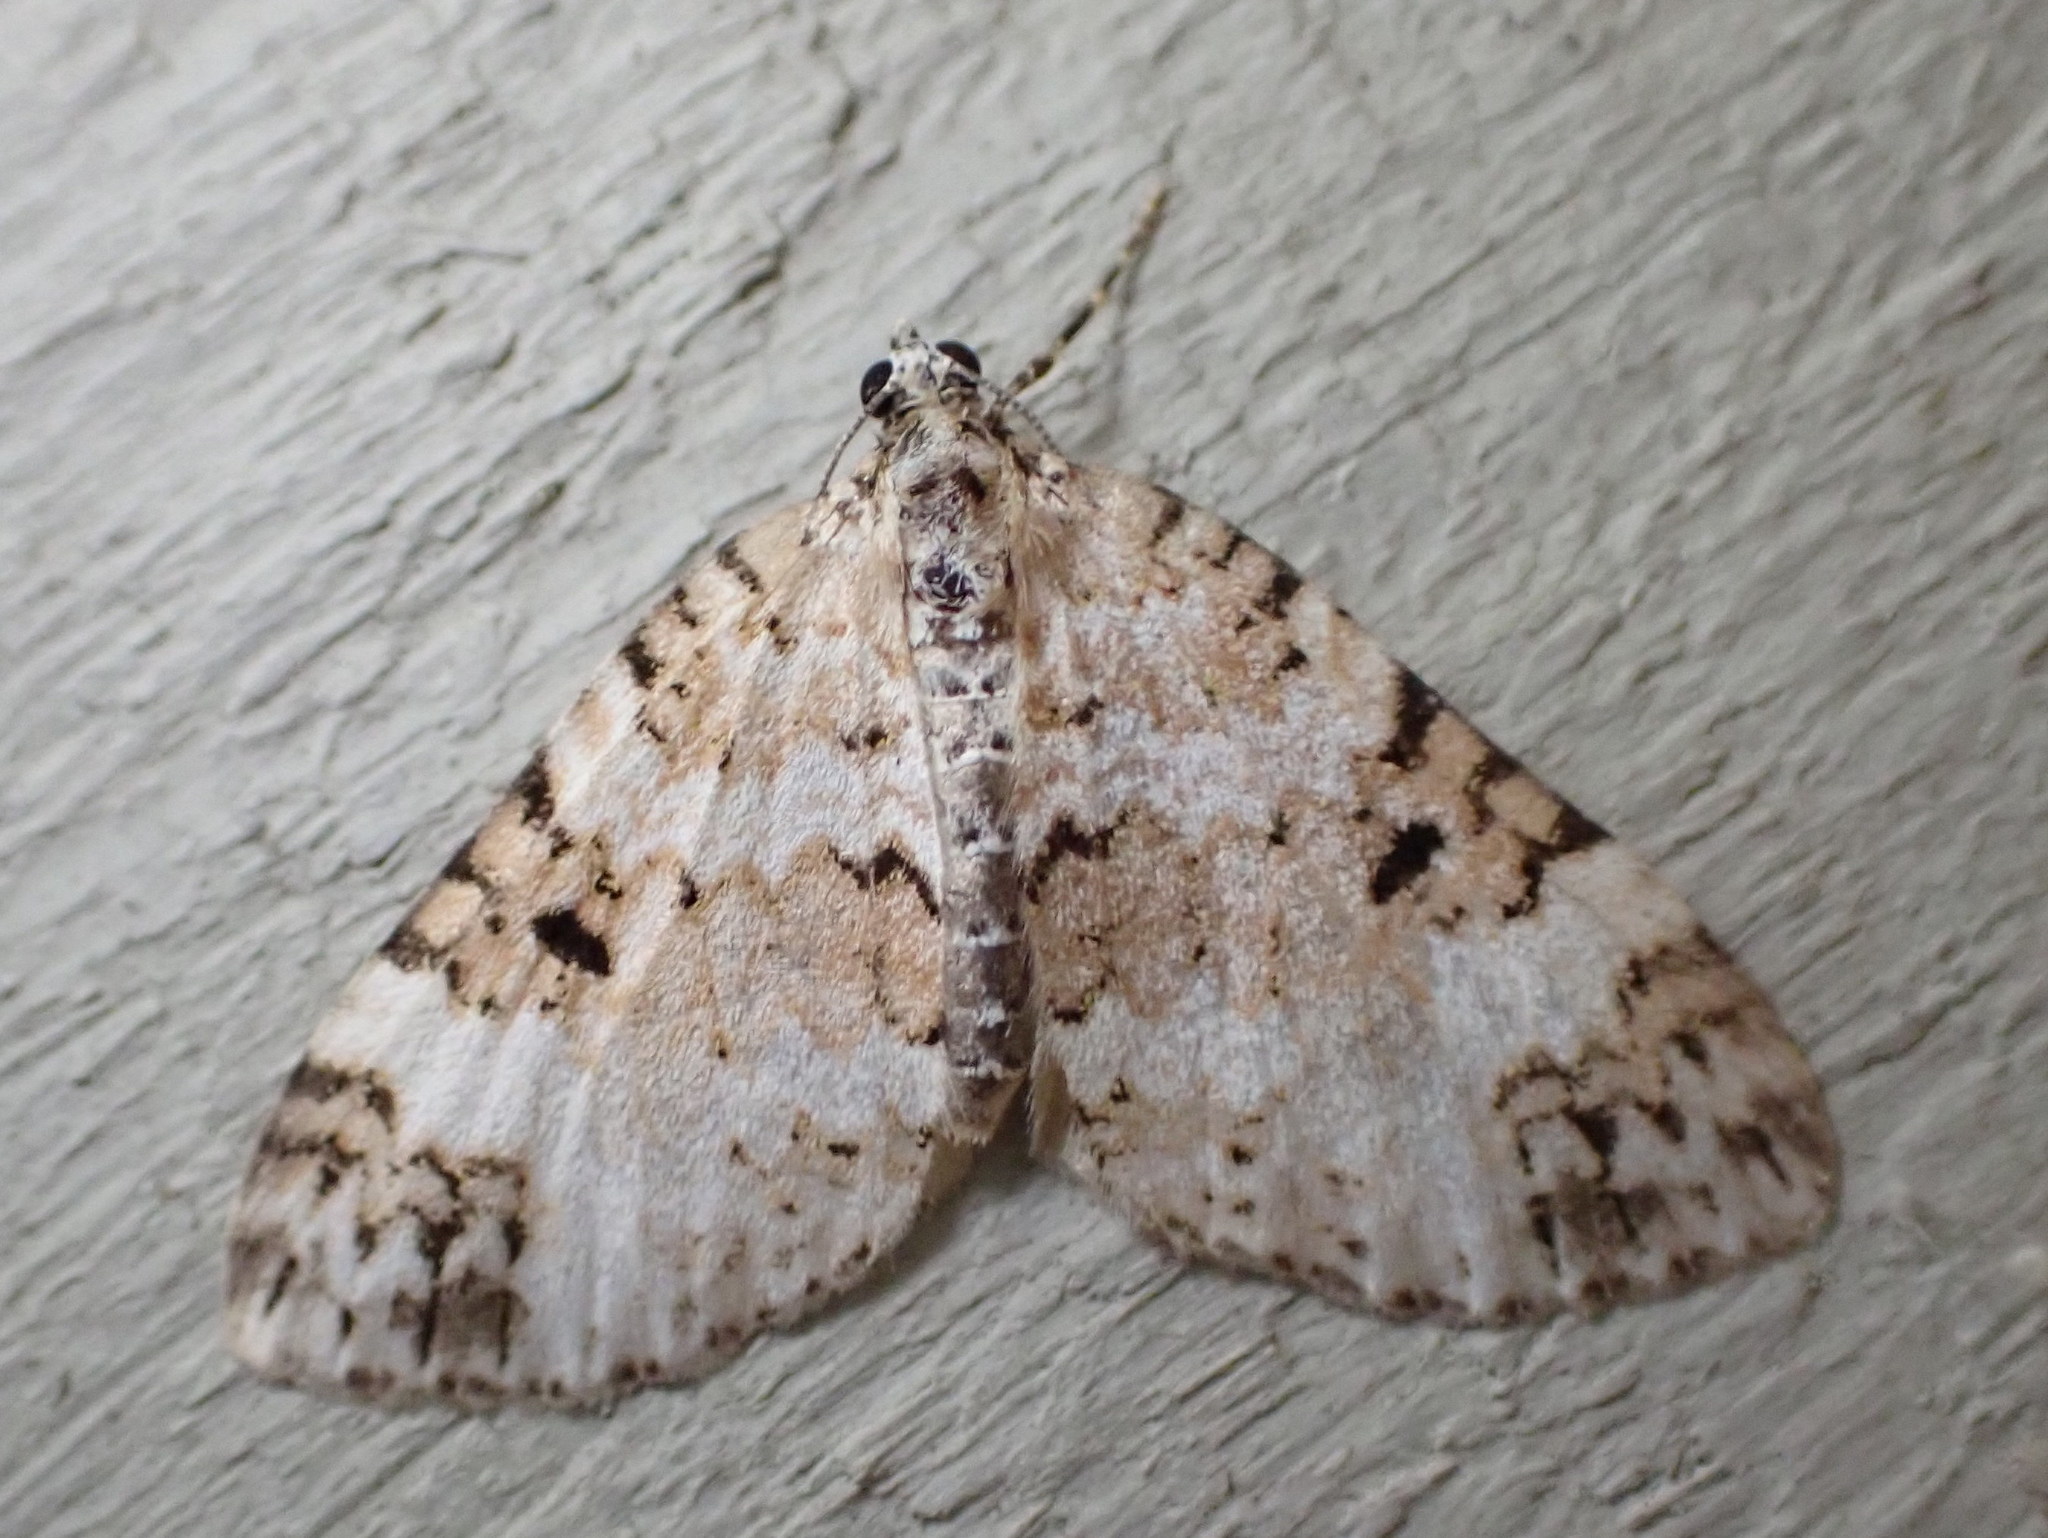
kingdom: Animalia
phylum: Arthropoda
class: Insecta
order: Lepidoptera
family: Geometridae
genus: Spargania
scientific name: Spargania magnoliata
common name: Double-banded carpet
